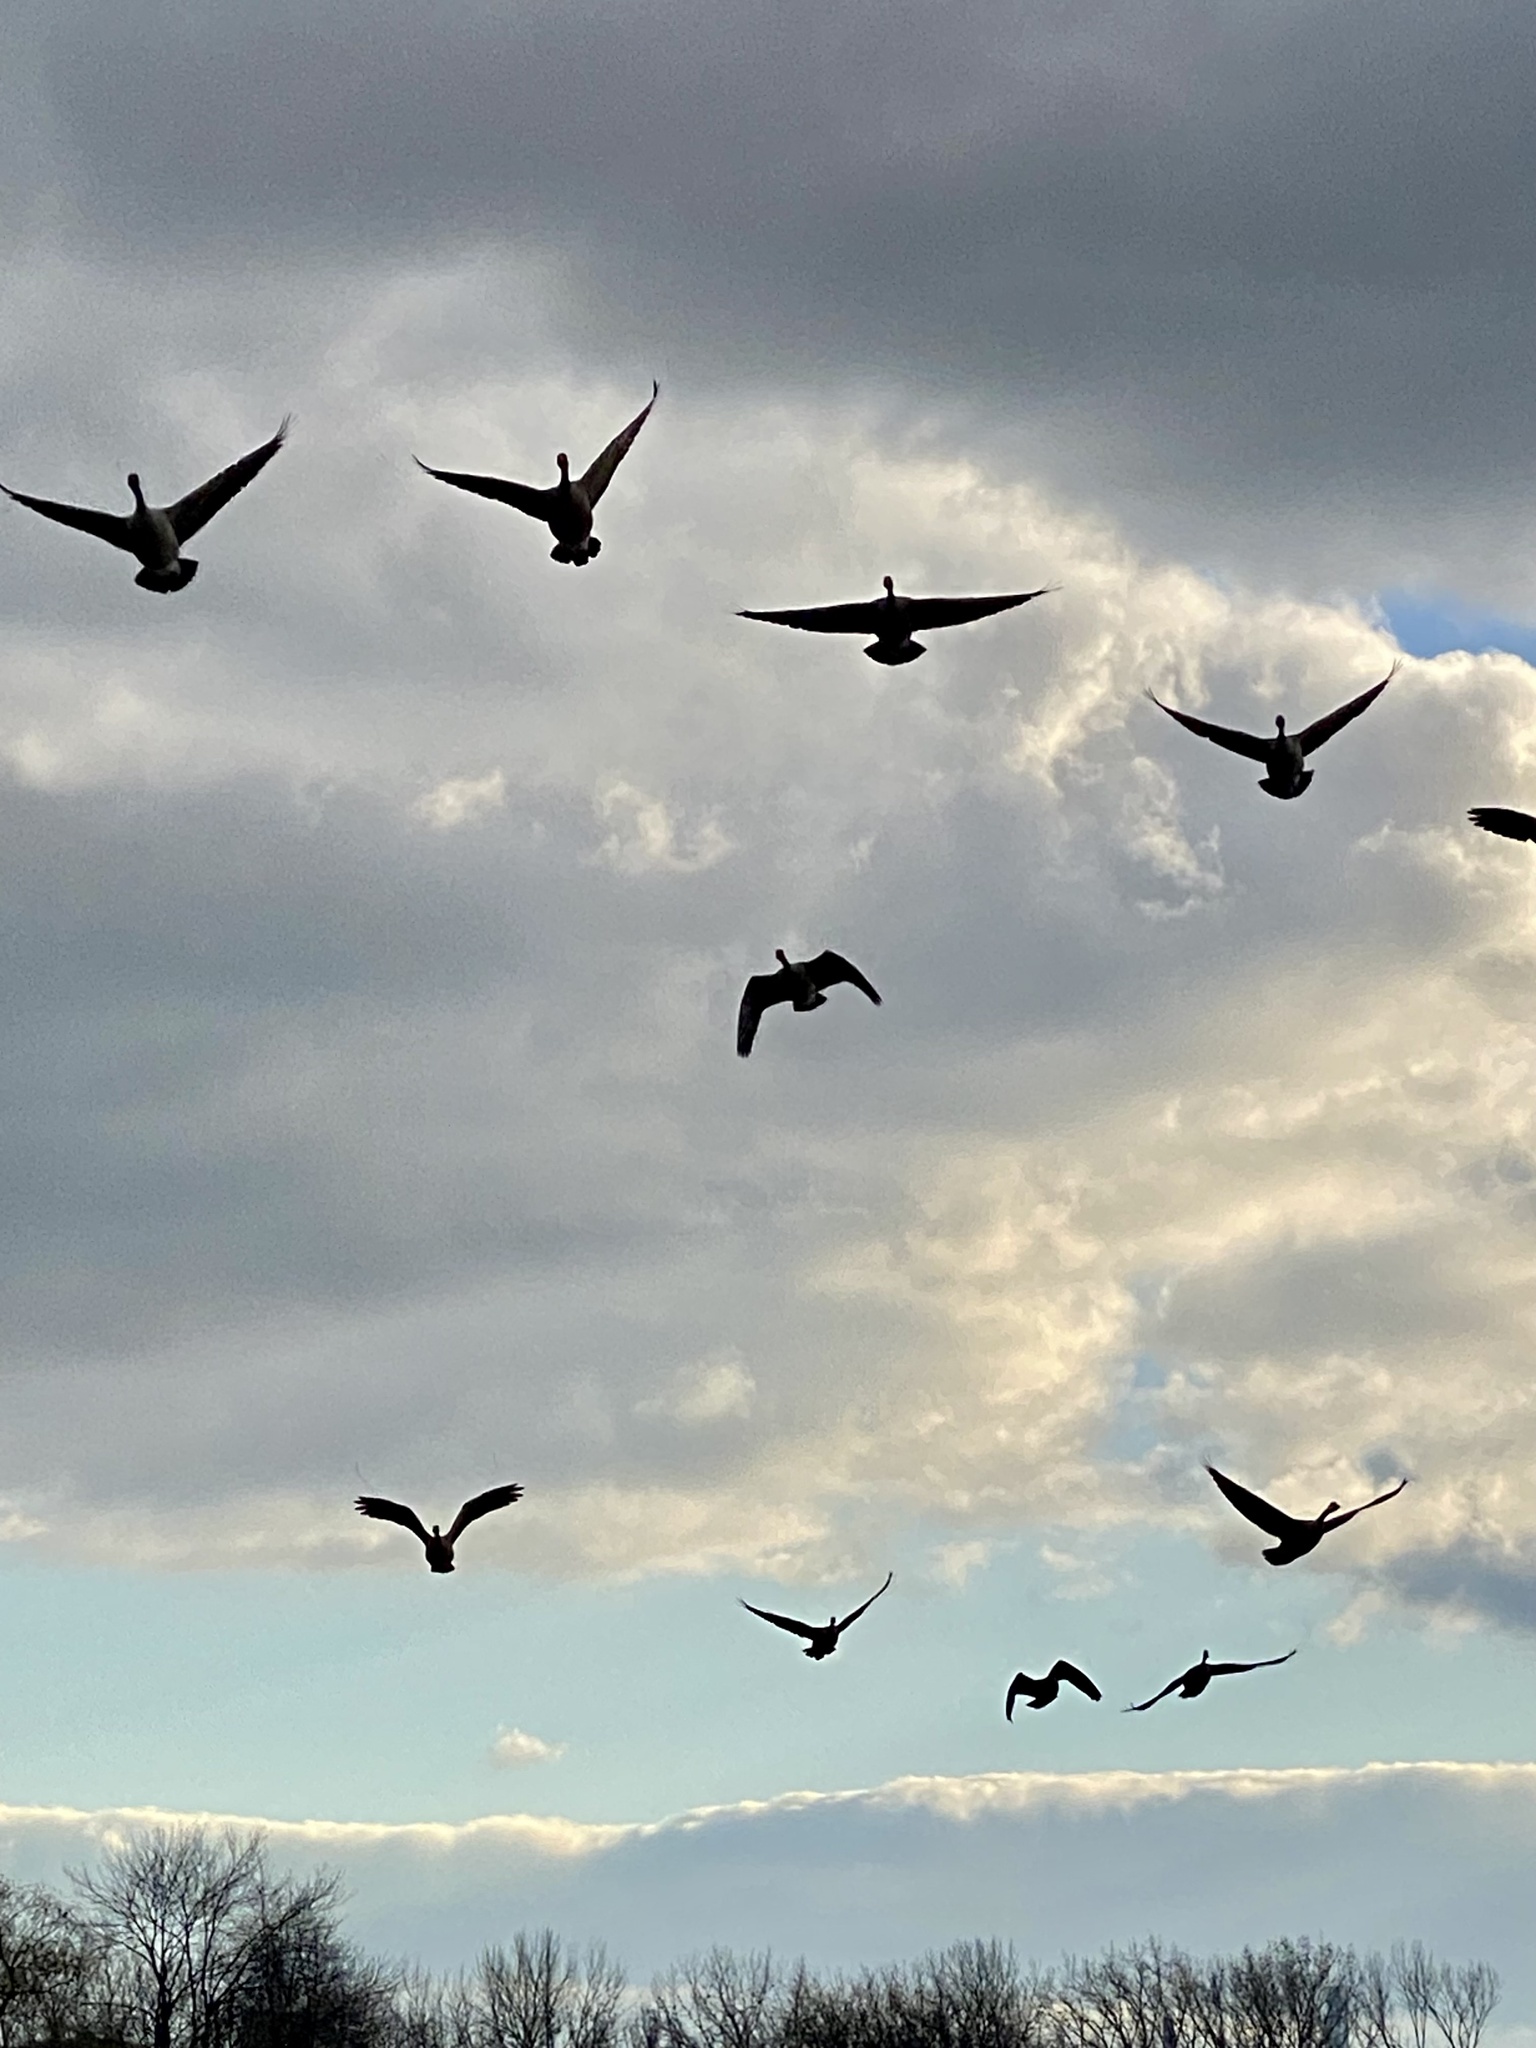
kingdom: Animalia
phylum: Chordata
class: Aves
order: Anseriformes
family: Anatidae
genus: Branta
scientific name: Branta canadensis
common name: Canada goose
